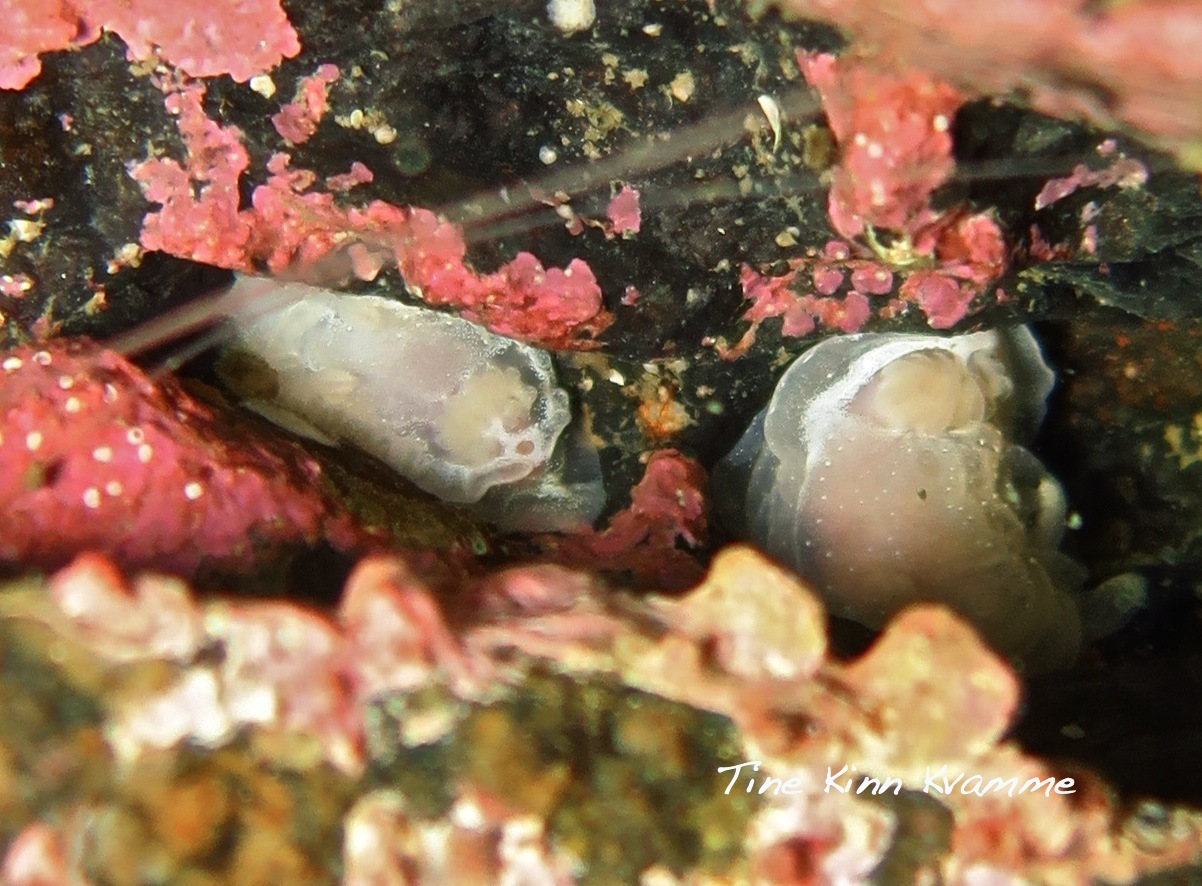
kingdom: Animalia
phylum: Mollusca
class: Gastropoda
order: Nudibranchia
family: Goniodorididae
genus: Okenia
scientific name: Okenia
